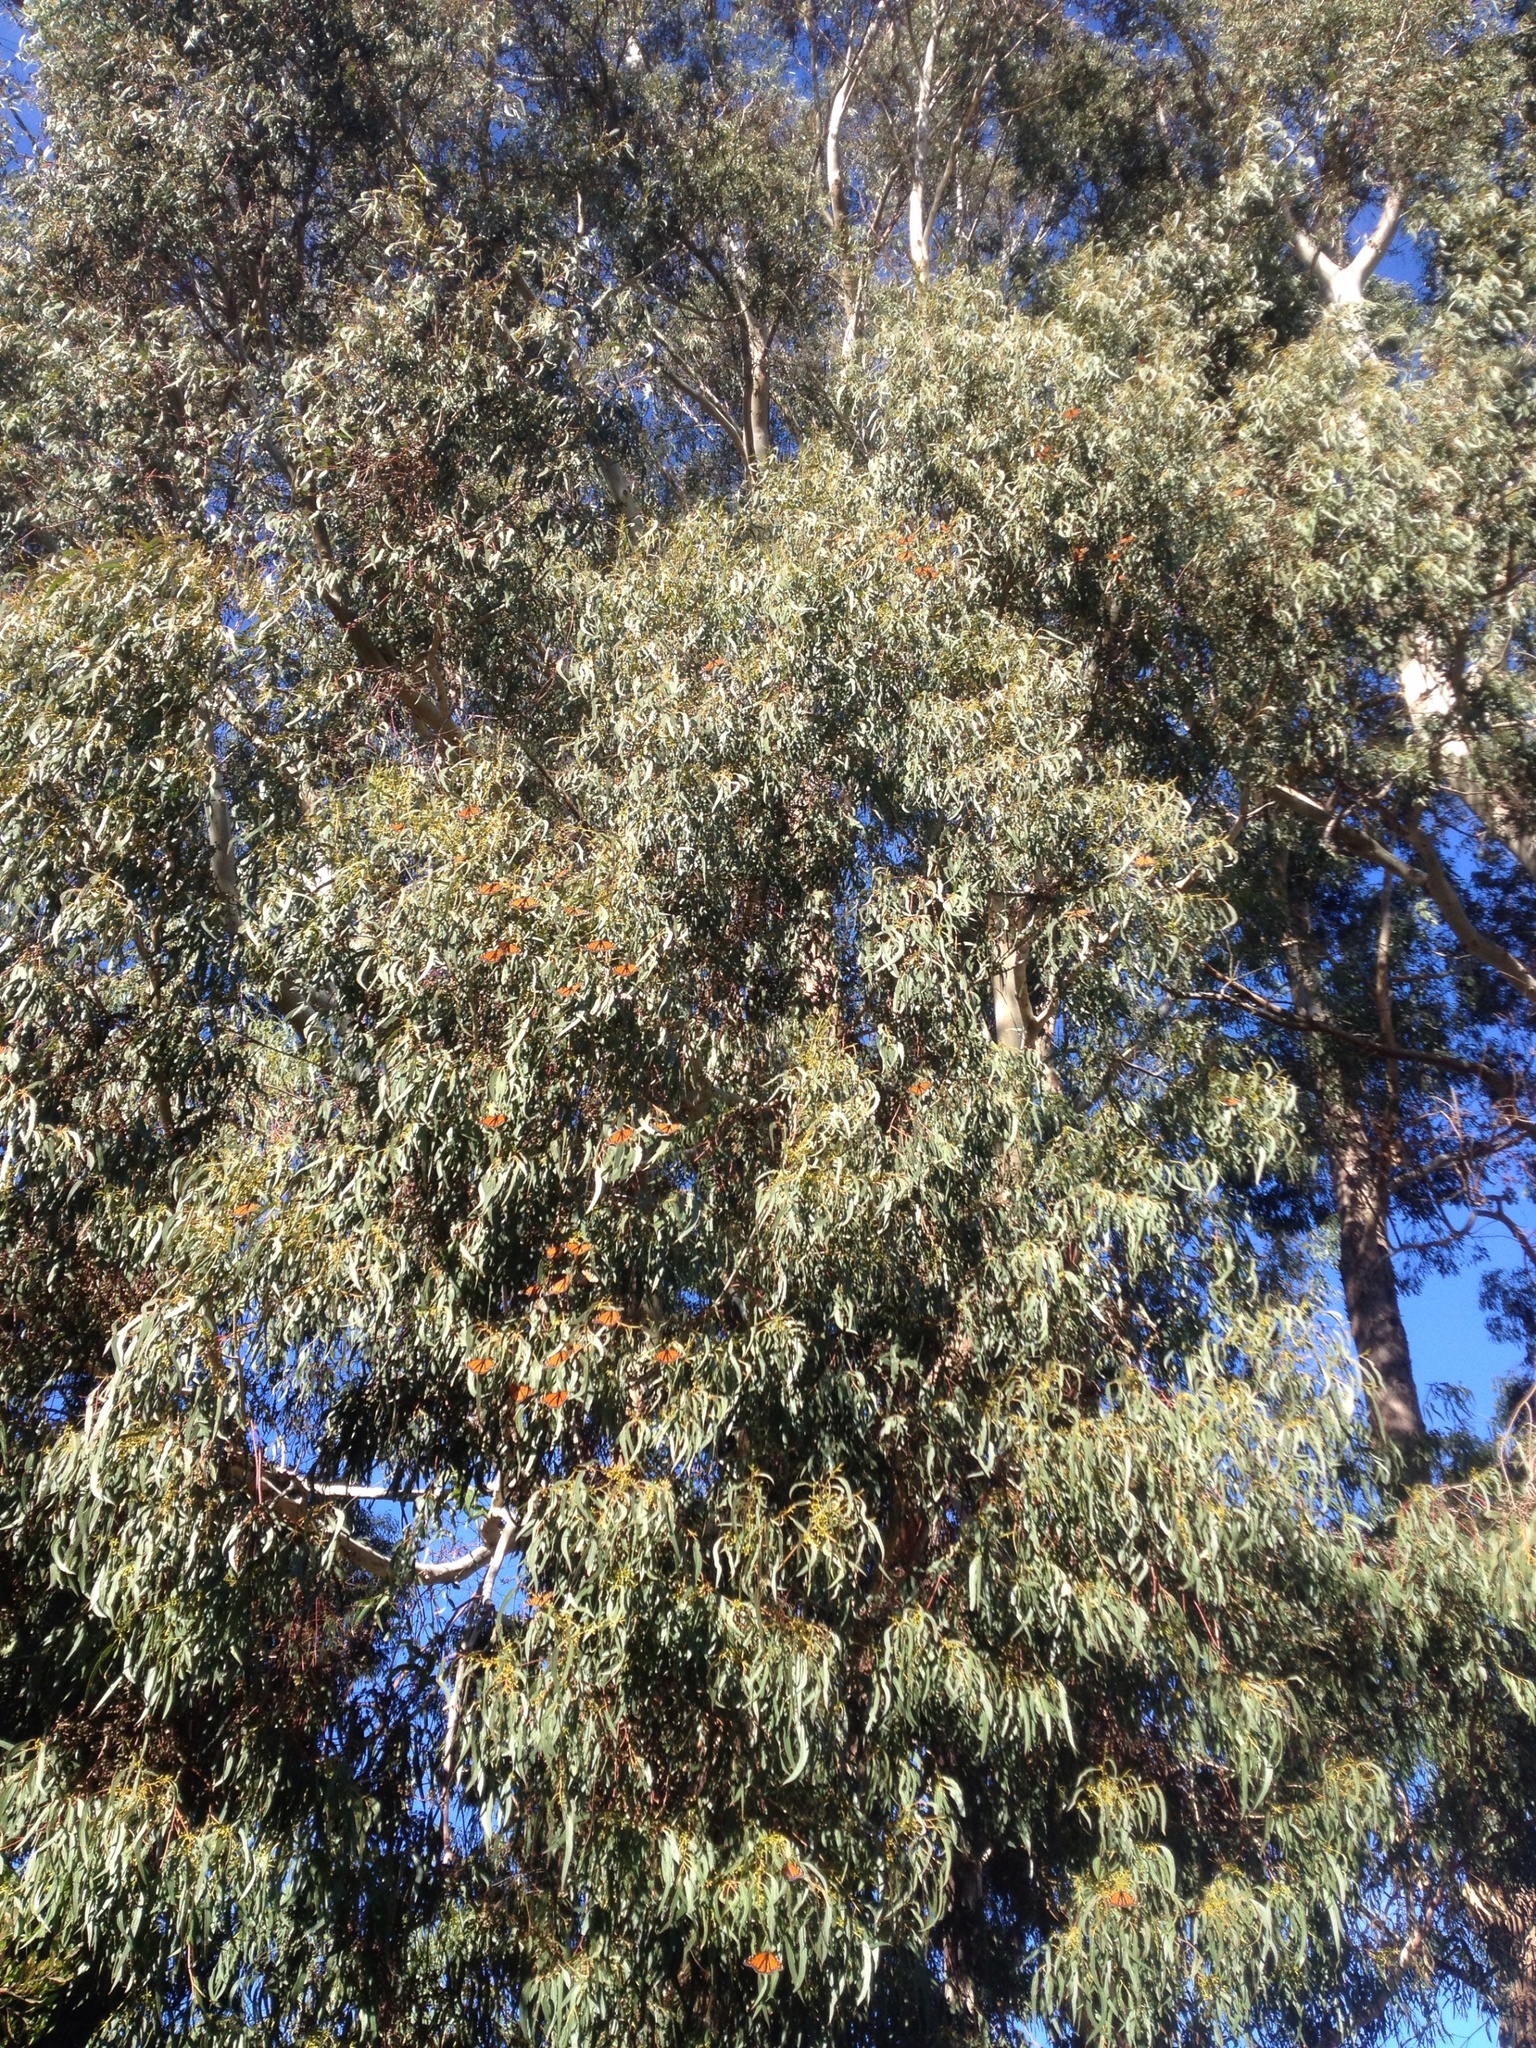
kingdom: Animalia
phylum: Arthropoda
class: Insecta
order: Lepidoptera
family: Nymphalidae
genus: Danaus
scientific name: Danaus plexippus
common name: Monarch
